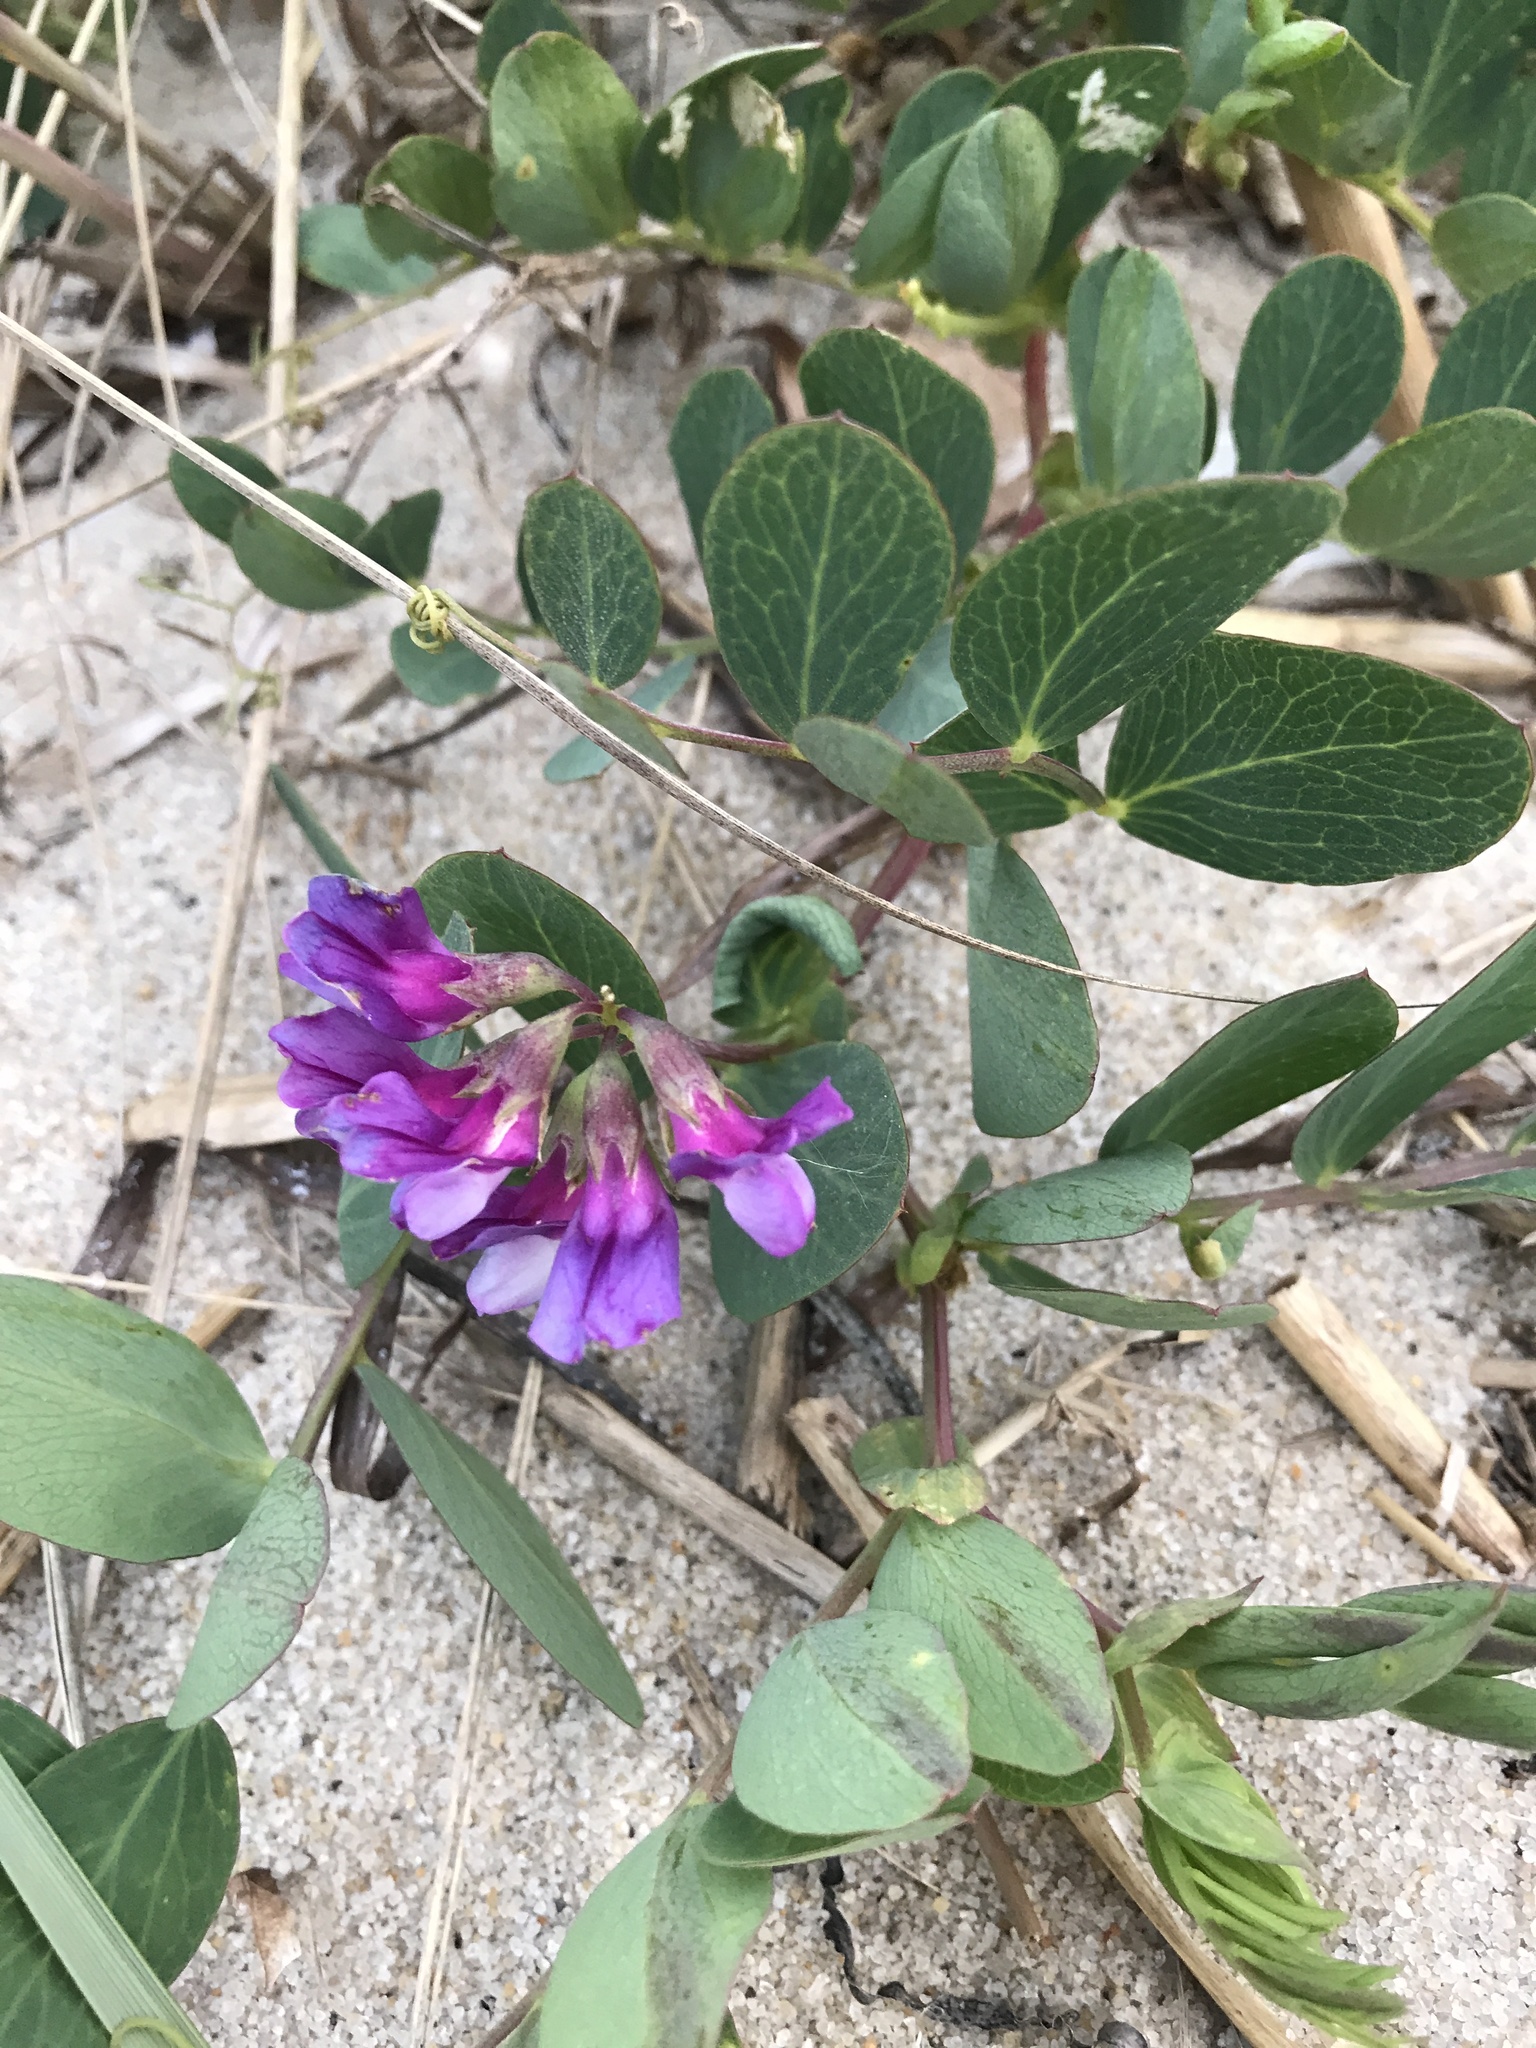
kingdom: Plantae
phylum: Tracheophyta
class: Magnoliopsida
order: Fabales
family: Fabaceae
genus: Lathyrus
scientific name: Lathyrus japonicus
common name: Sea pea
